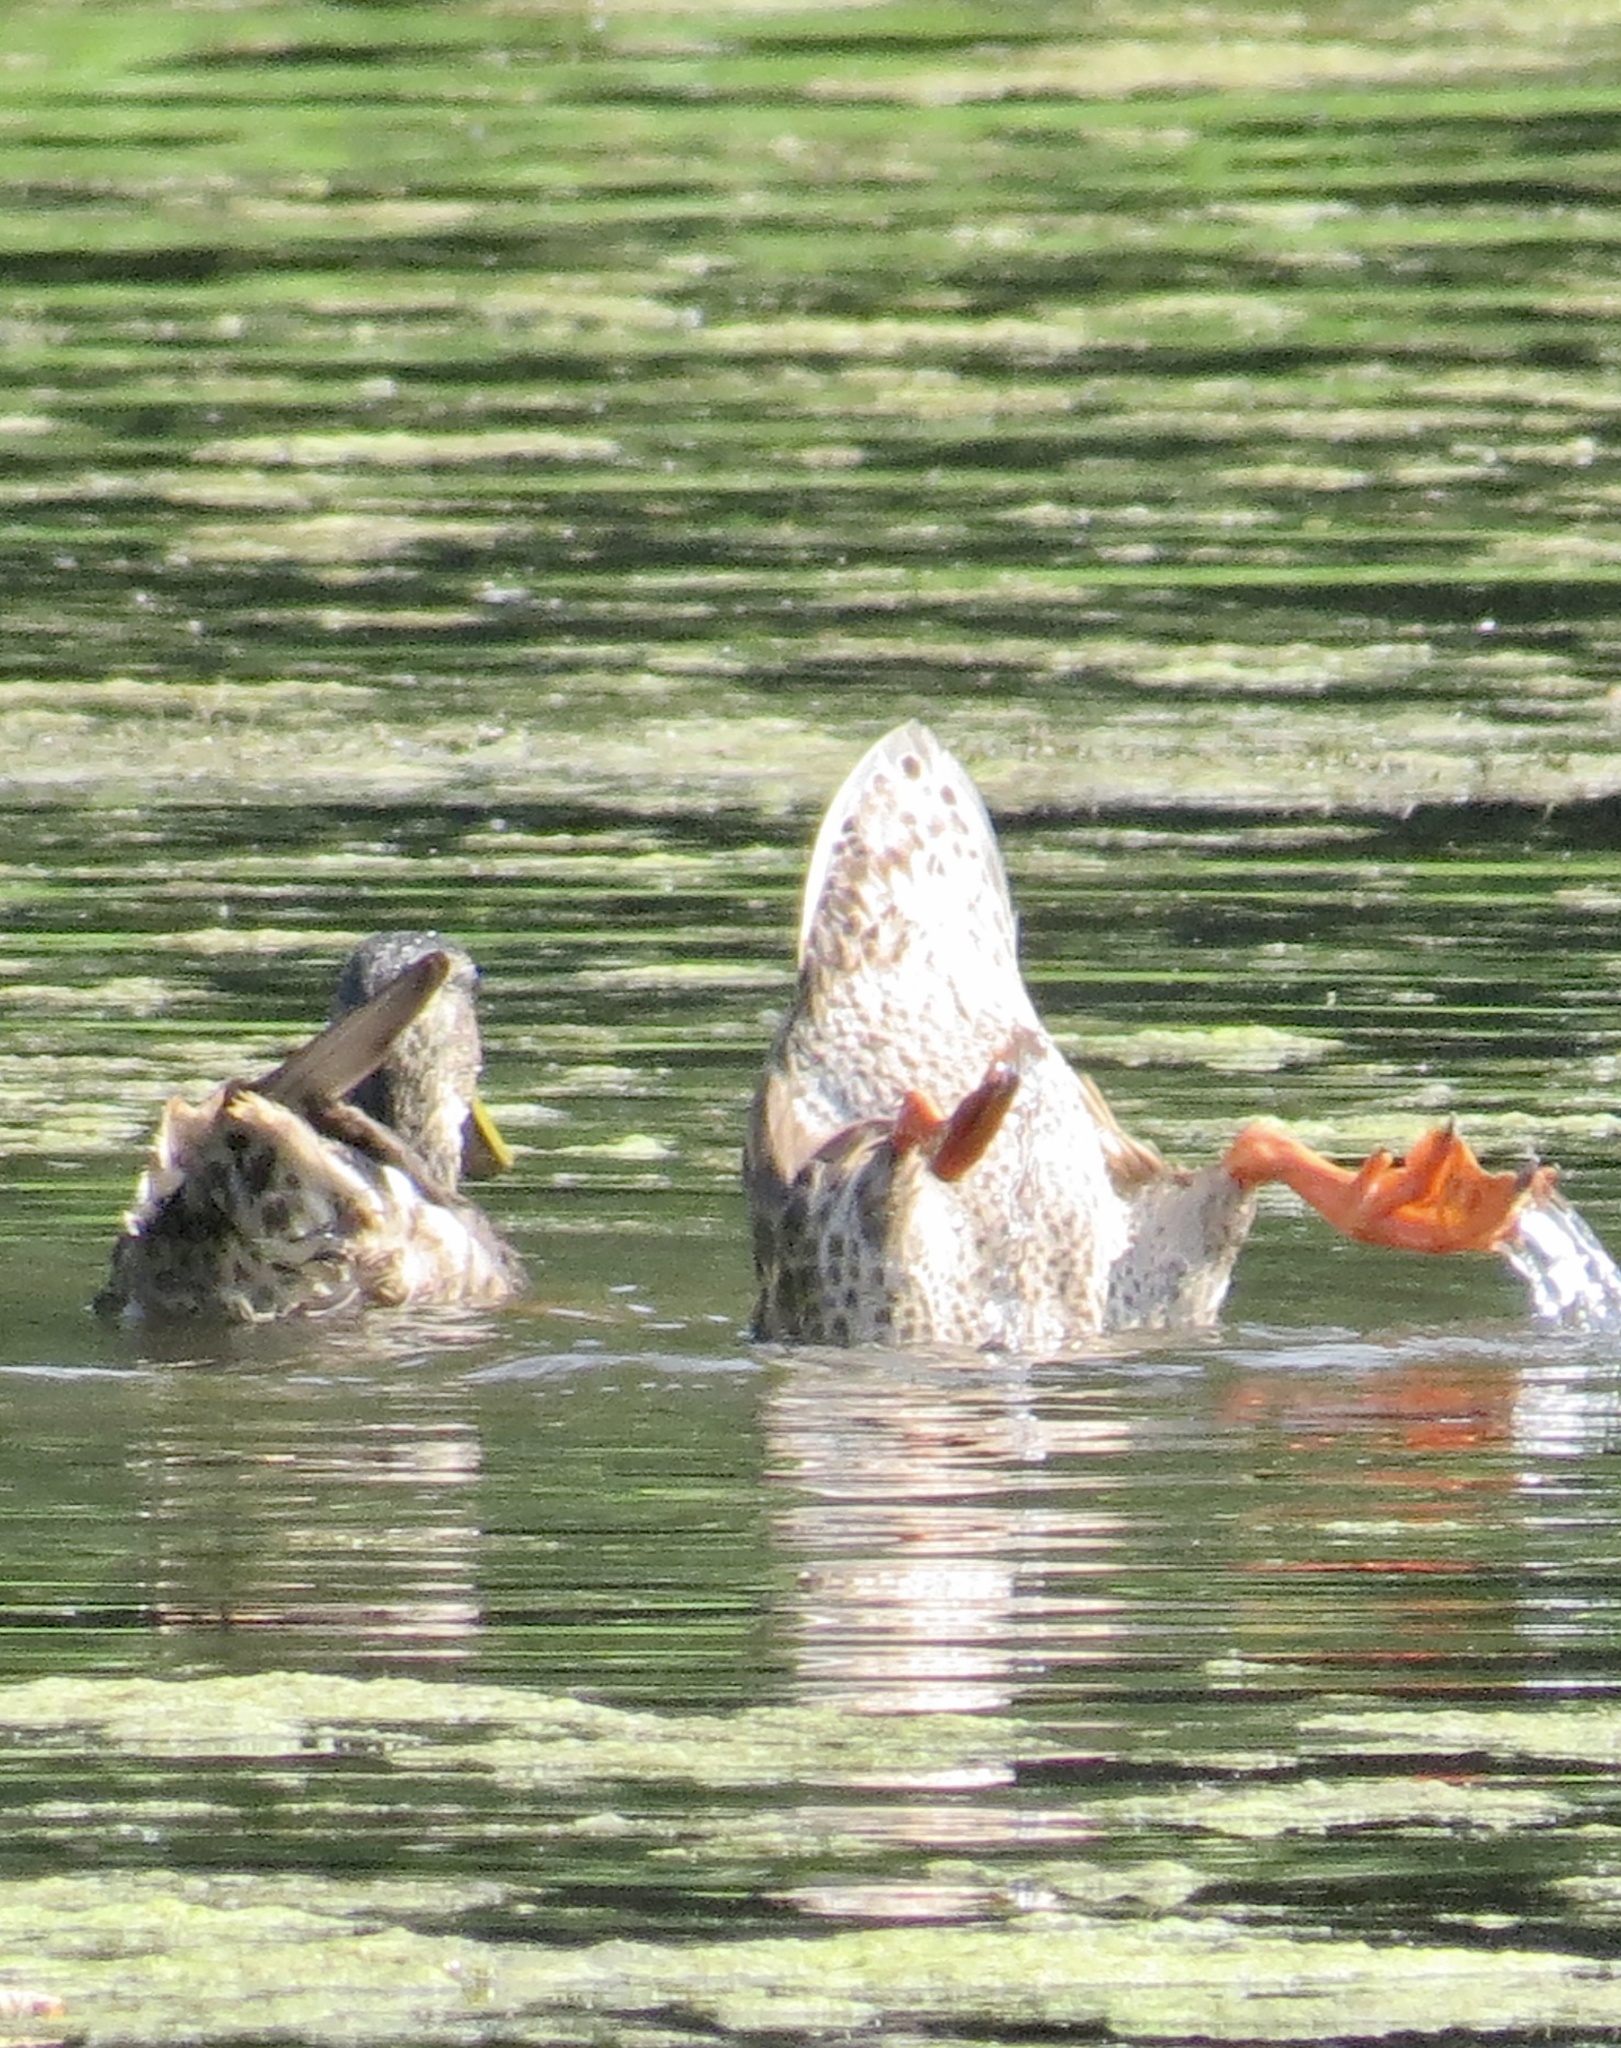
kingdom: Animalia
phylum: Chordata
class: Aves
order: Anseriformes
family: Anatidae
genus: Anas
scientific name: Anas platyrhynchos
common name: Mallard
